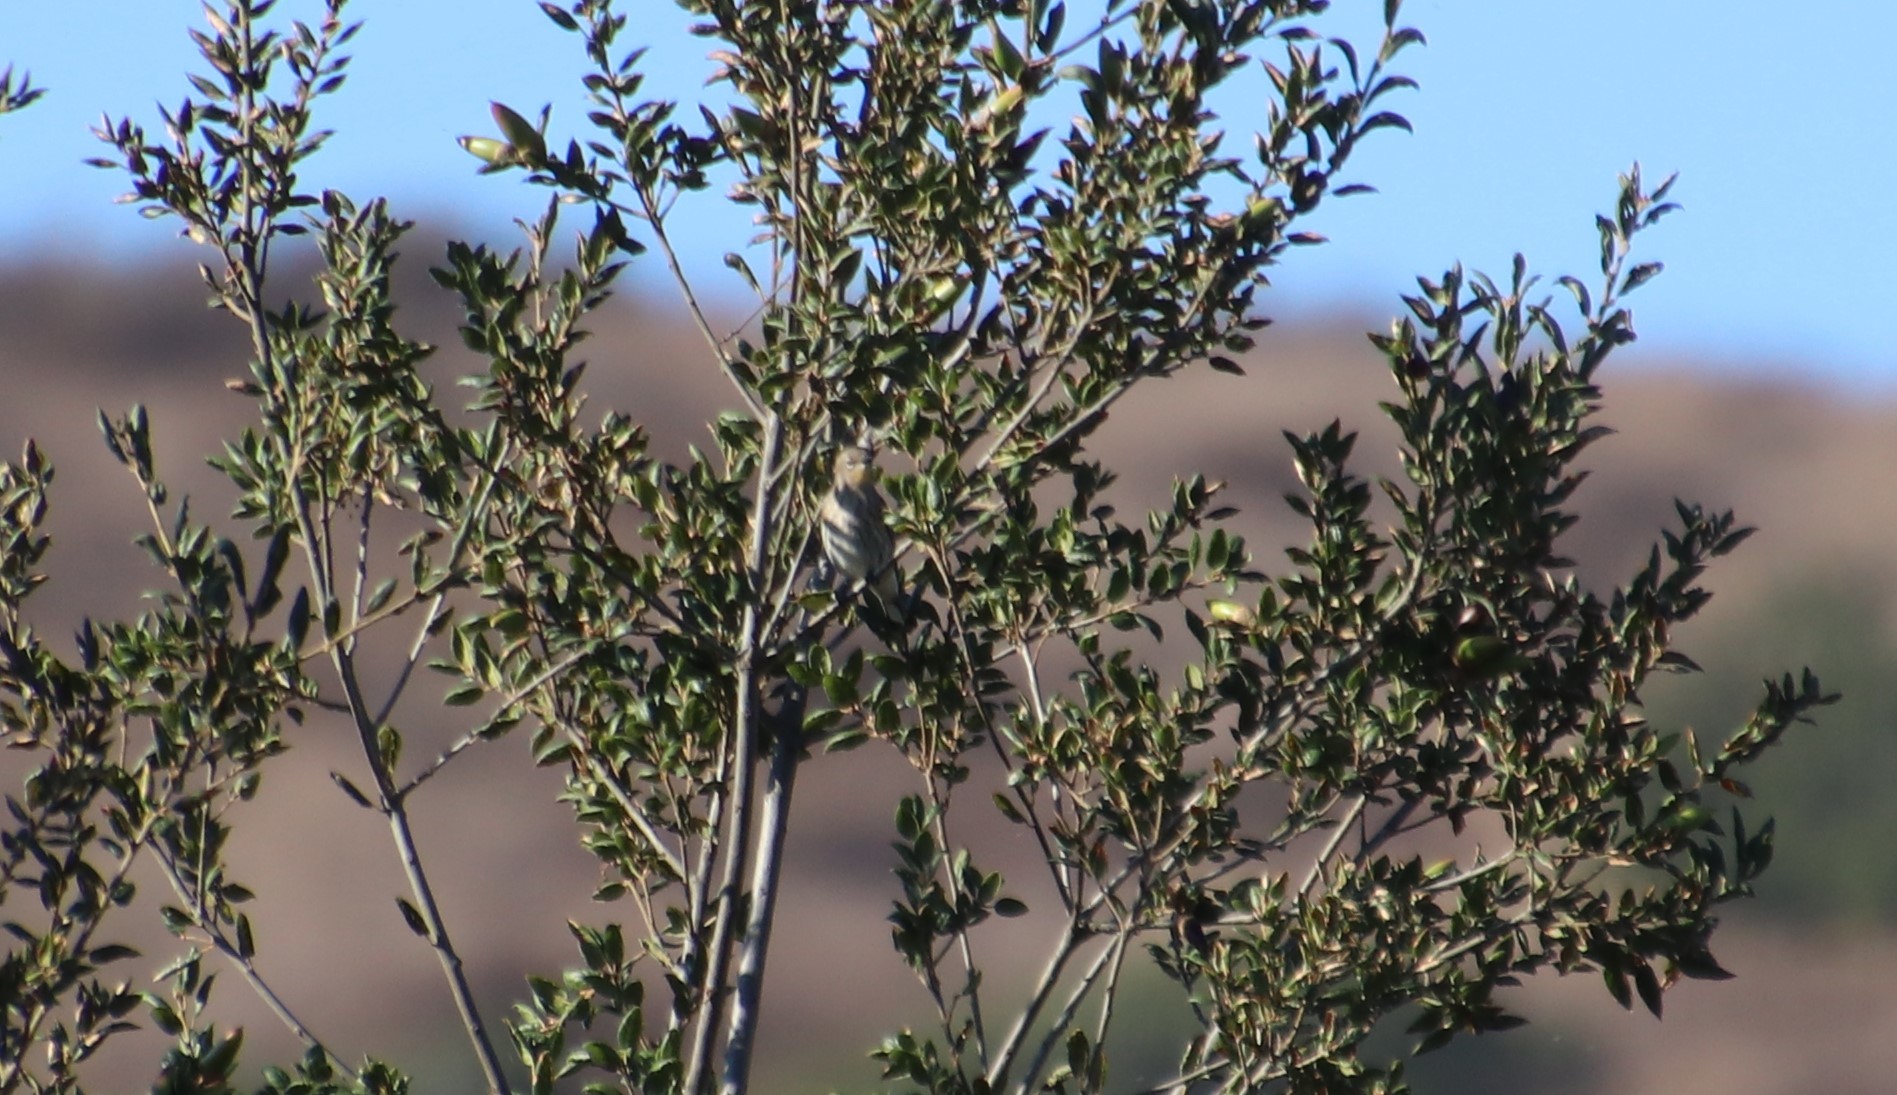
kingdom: Animalia
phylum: Chordata
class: Aves
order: Passeriformes
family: Parulidae
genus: Setophaga
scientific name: Setophaga coronata
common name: Myrtle warbler
